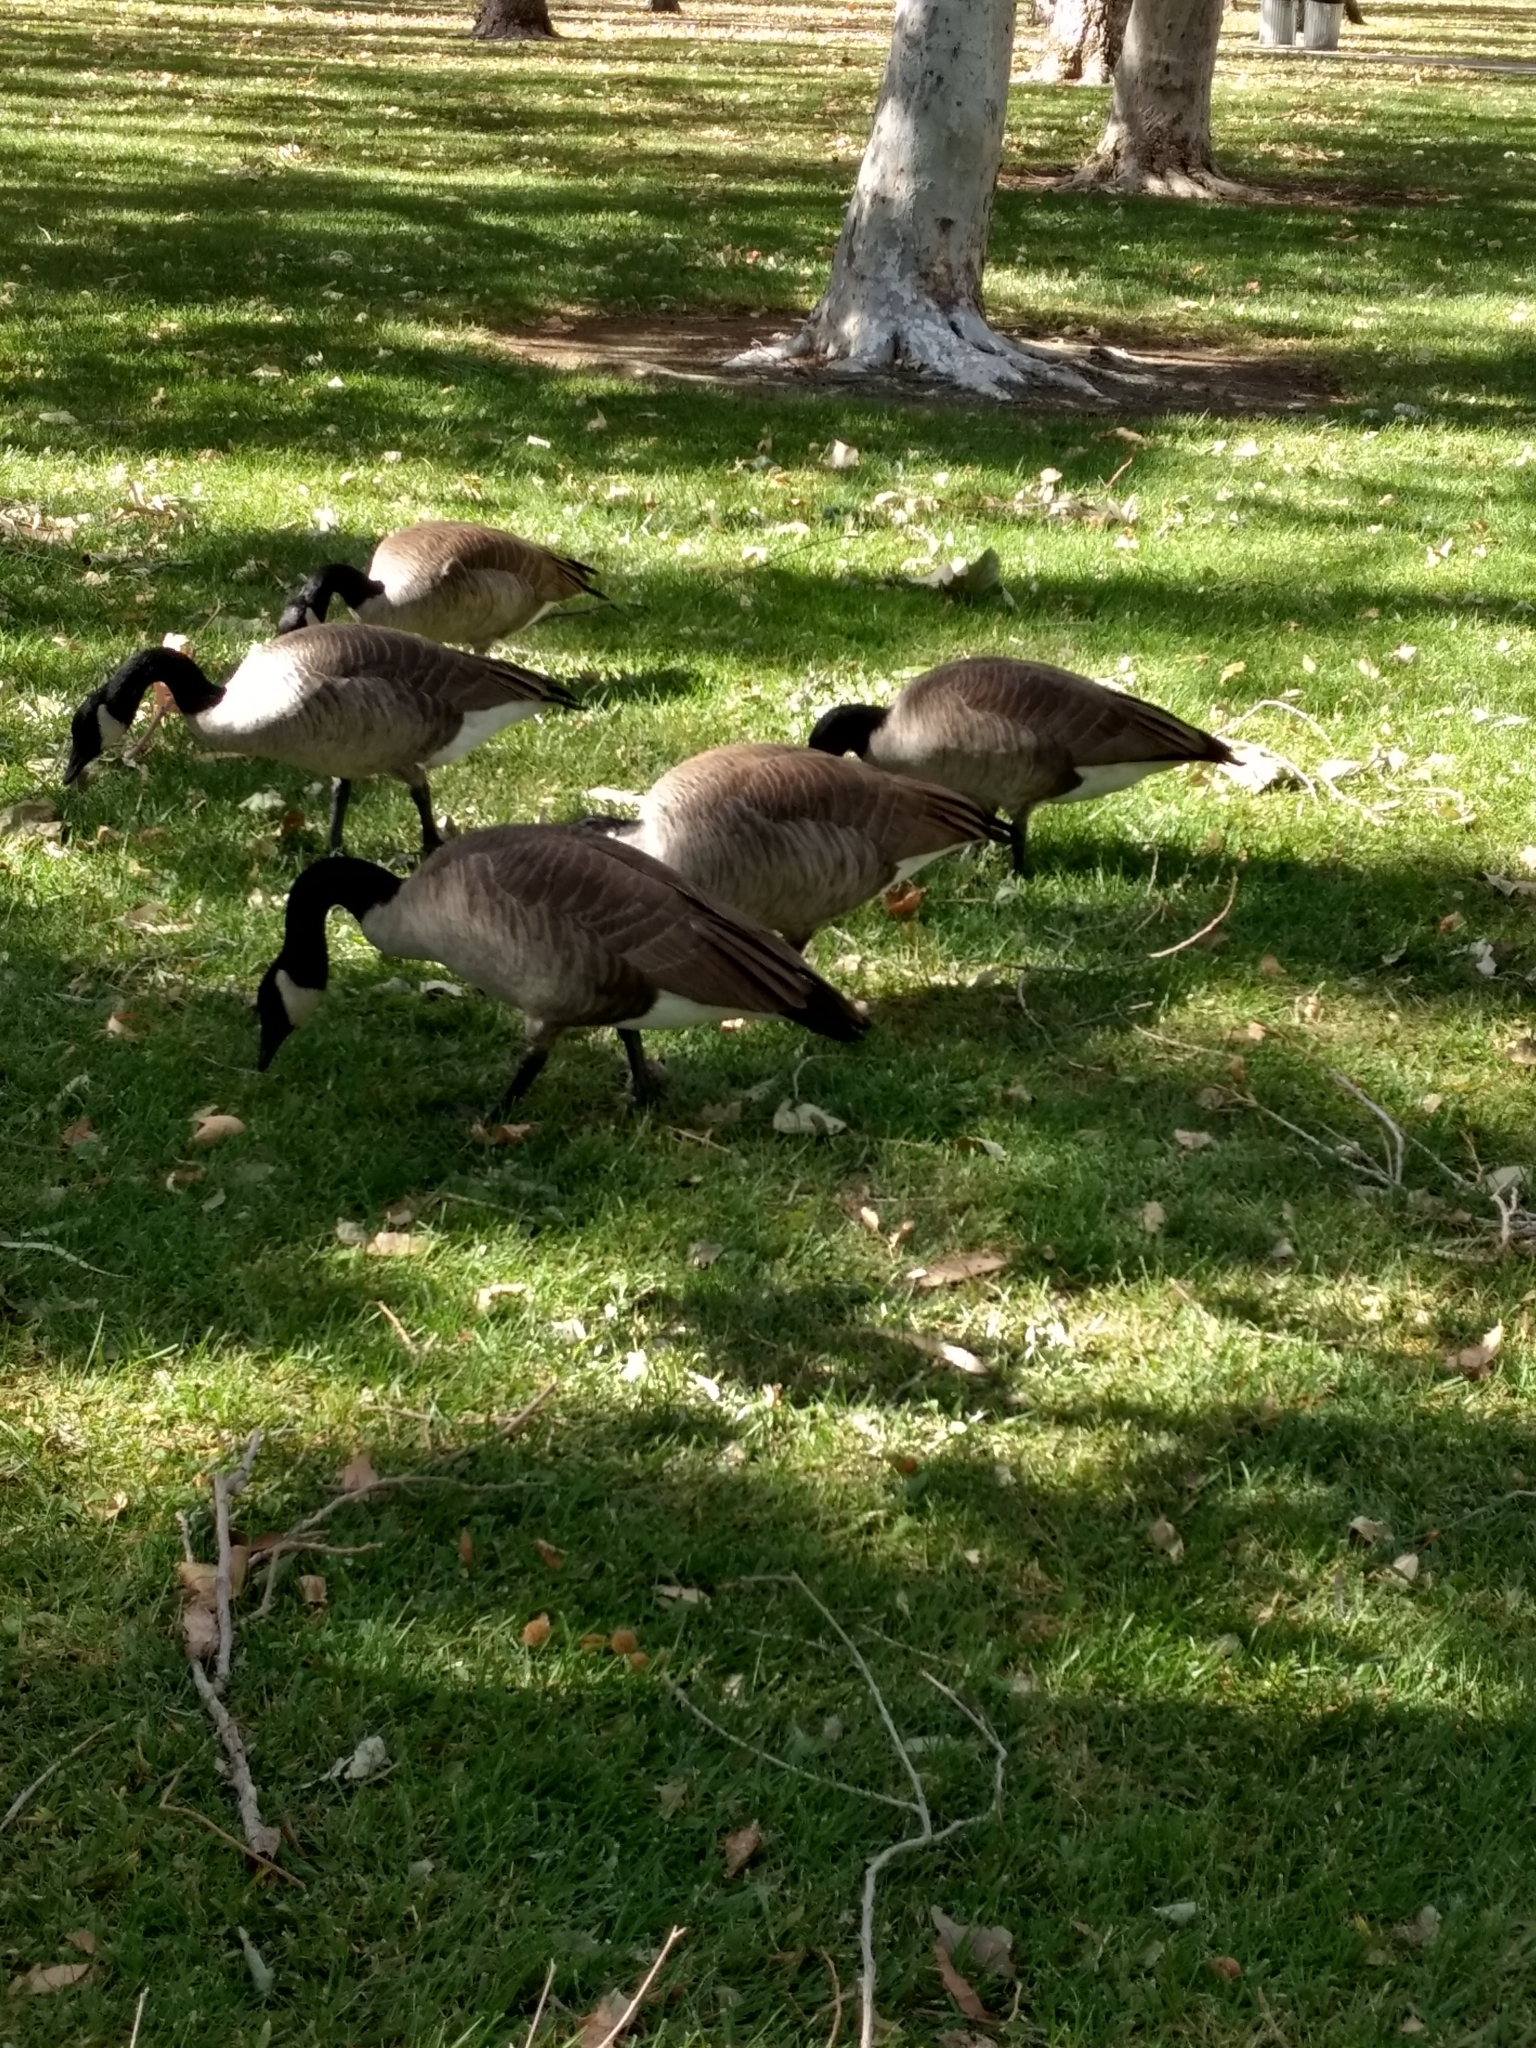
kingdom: Animalia
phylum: Chordata
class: Aves
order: Anseriformes
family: Anatidae
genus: Branta
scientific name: Branta canadensis
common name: Canada goose
